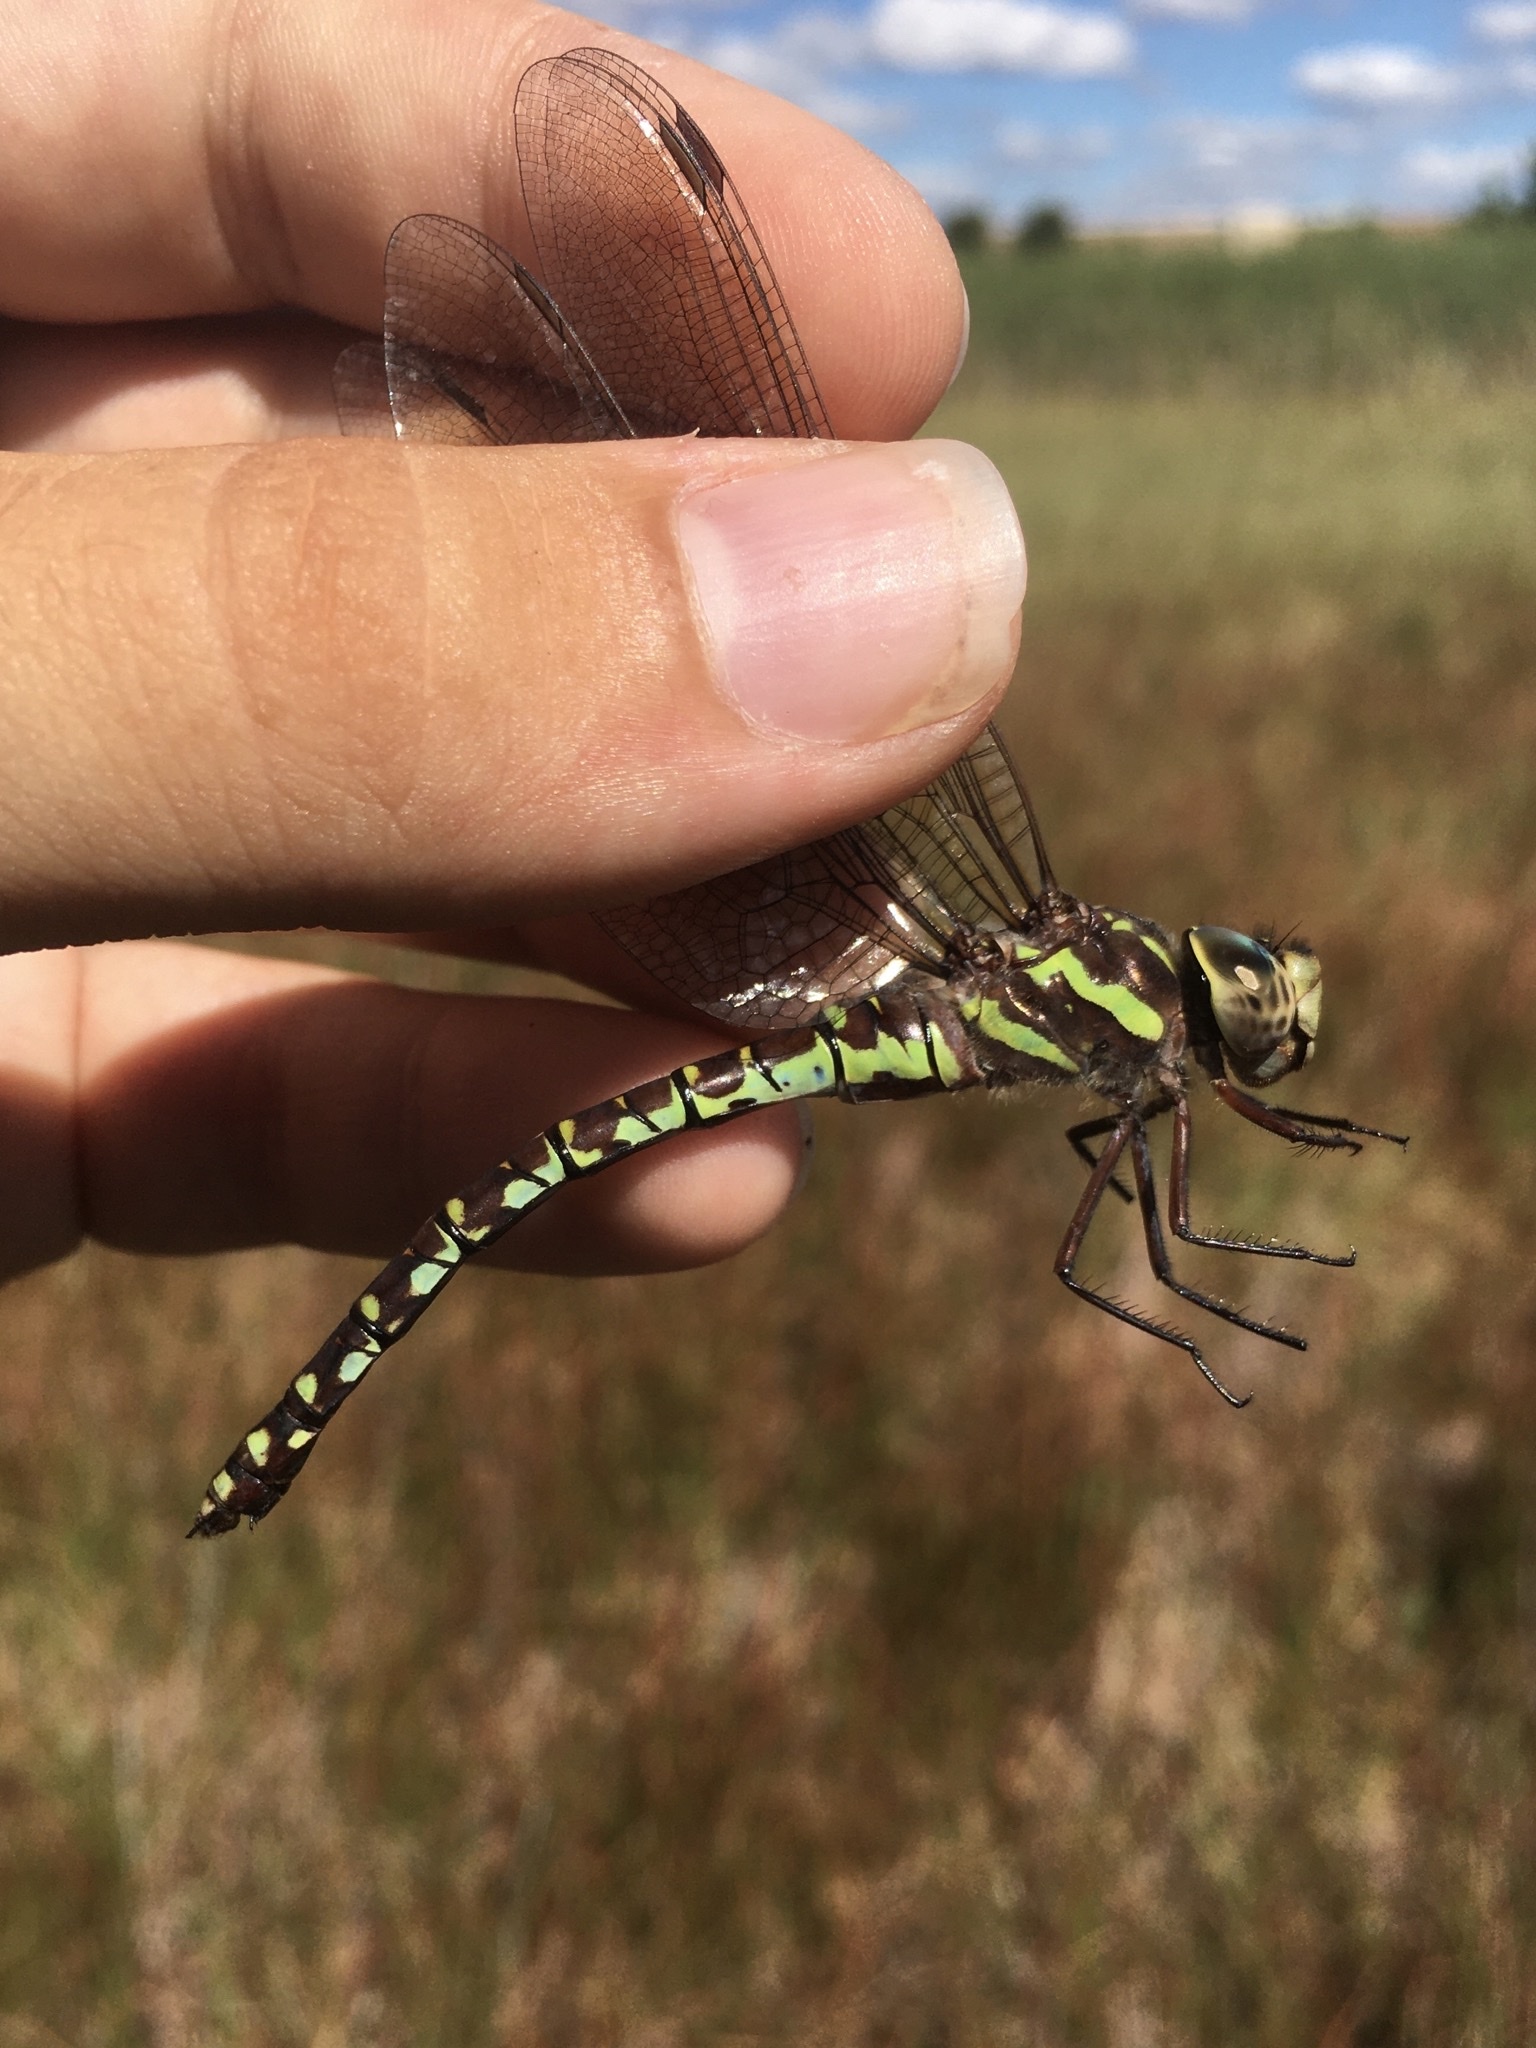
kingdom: Animalia
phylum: Arthropoda
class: Insecta
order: Odonata
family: Aeshnidae
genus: Aeshna
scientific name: Aeshna verticalis
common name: Green-striped darner
